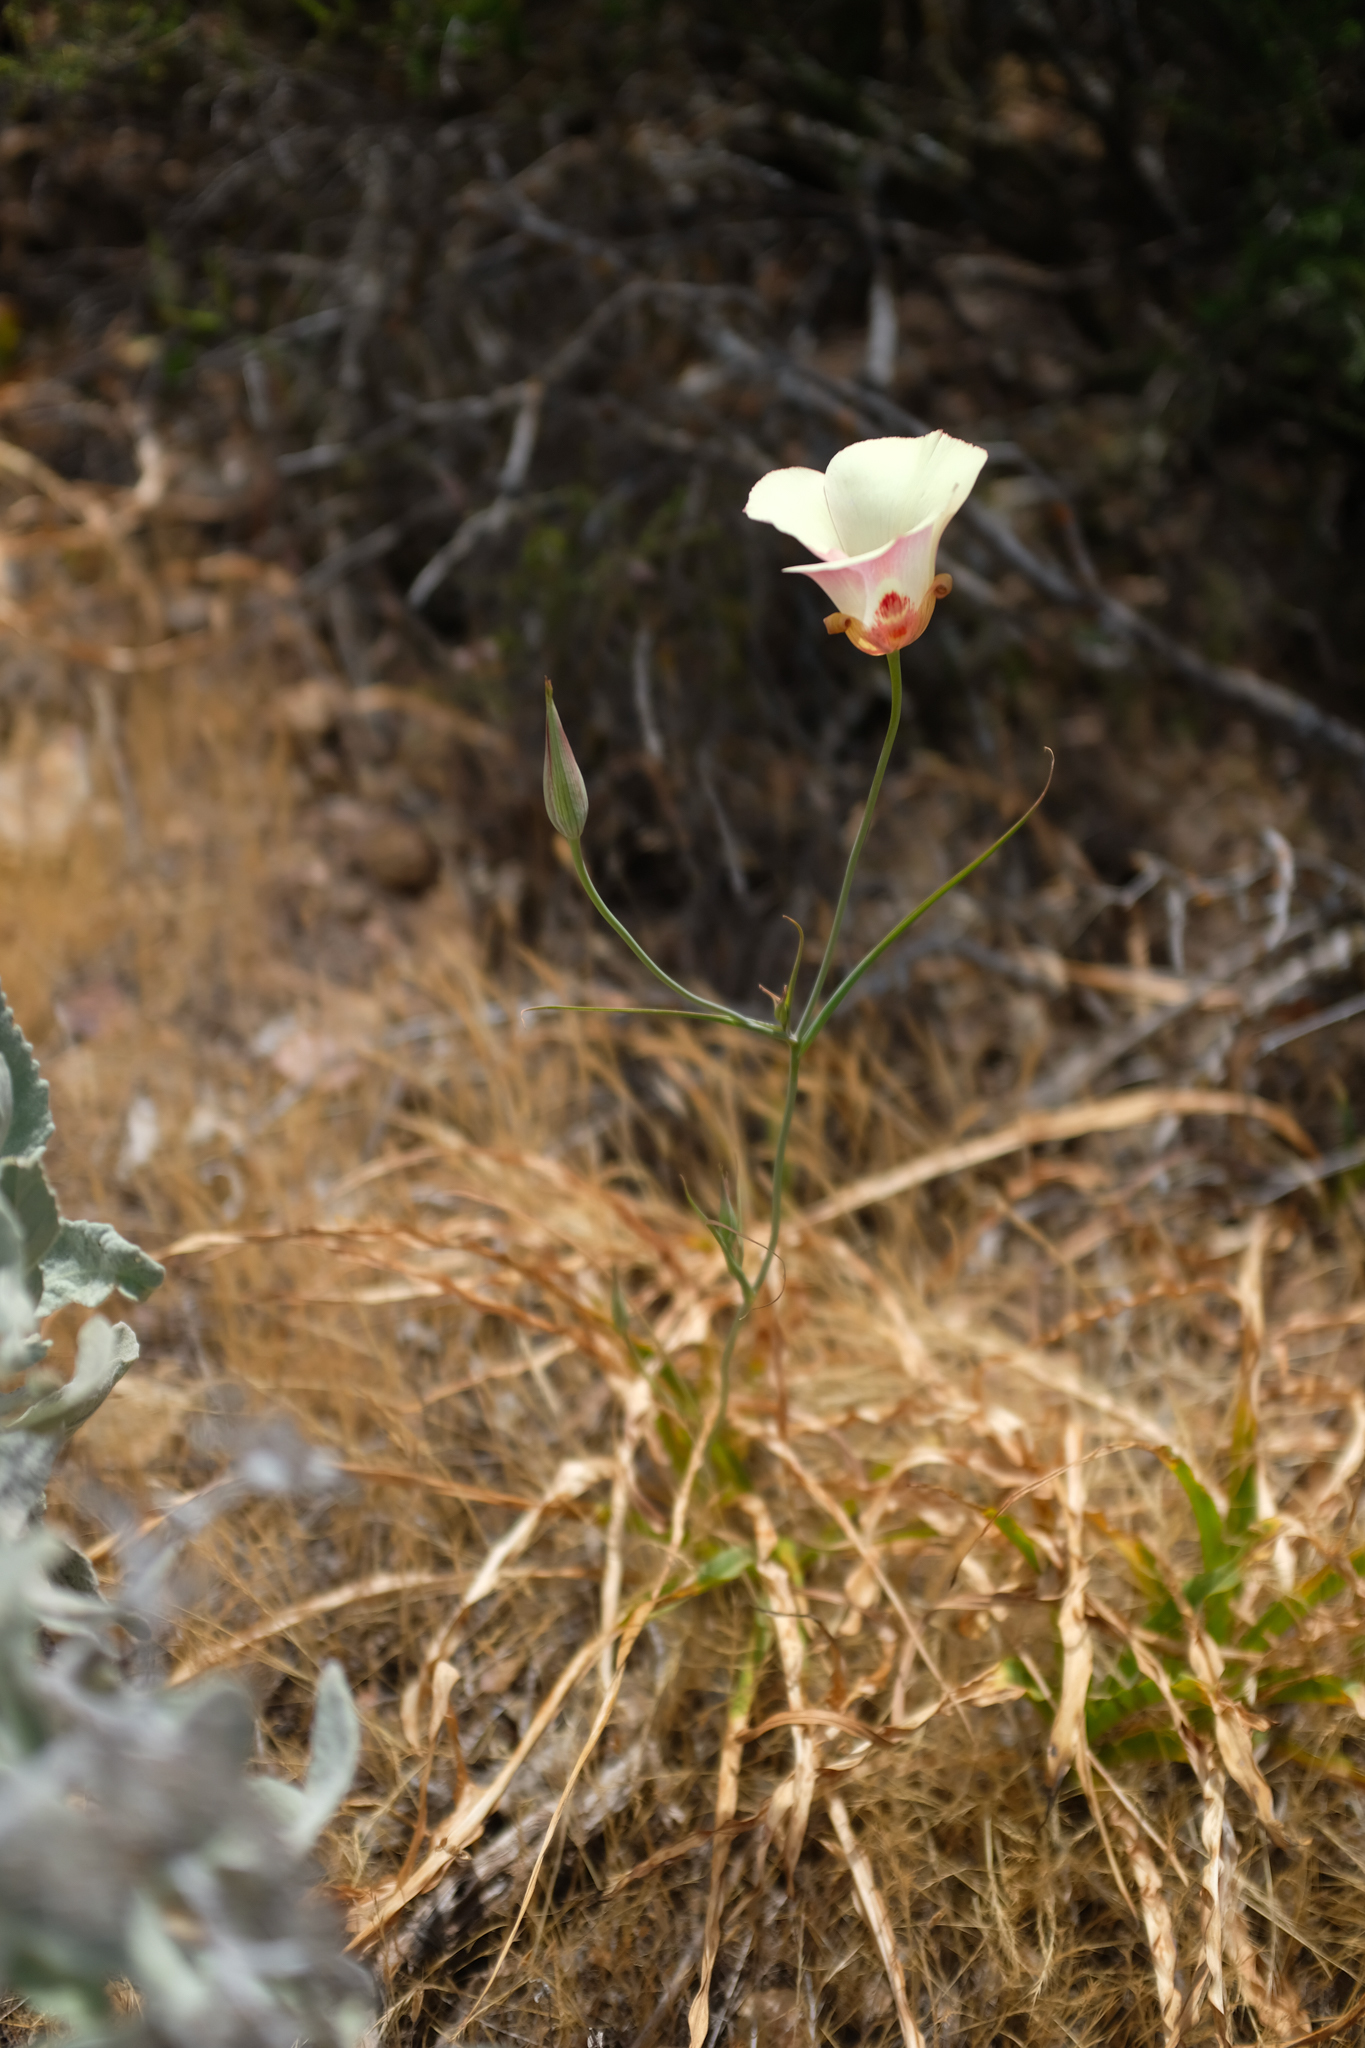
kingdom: Plantae
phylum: Tracheophyta
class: Liliopsida
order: Liliales
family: Liliaceae
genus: Calochortus
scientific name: Calochortus simulans
